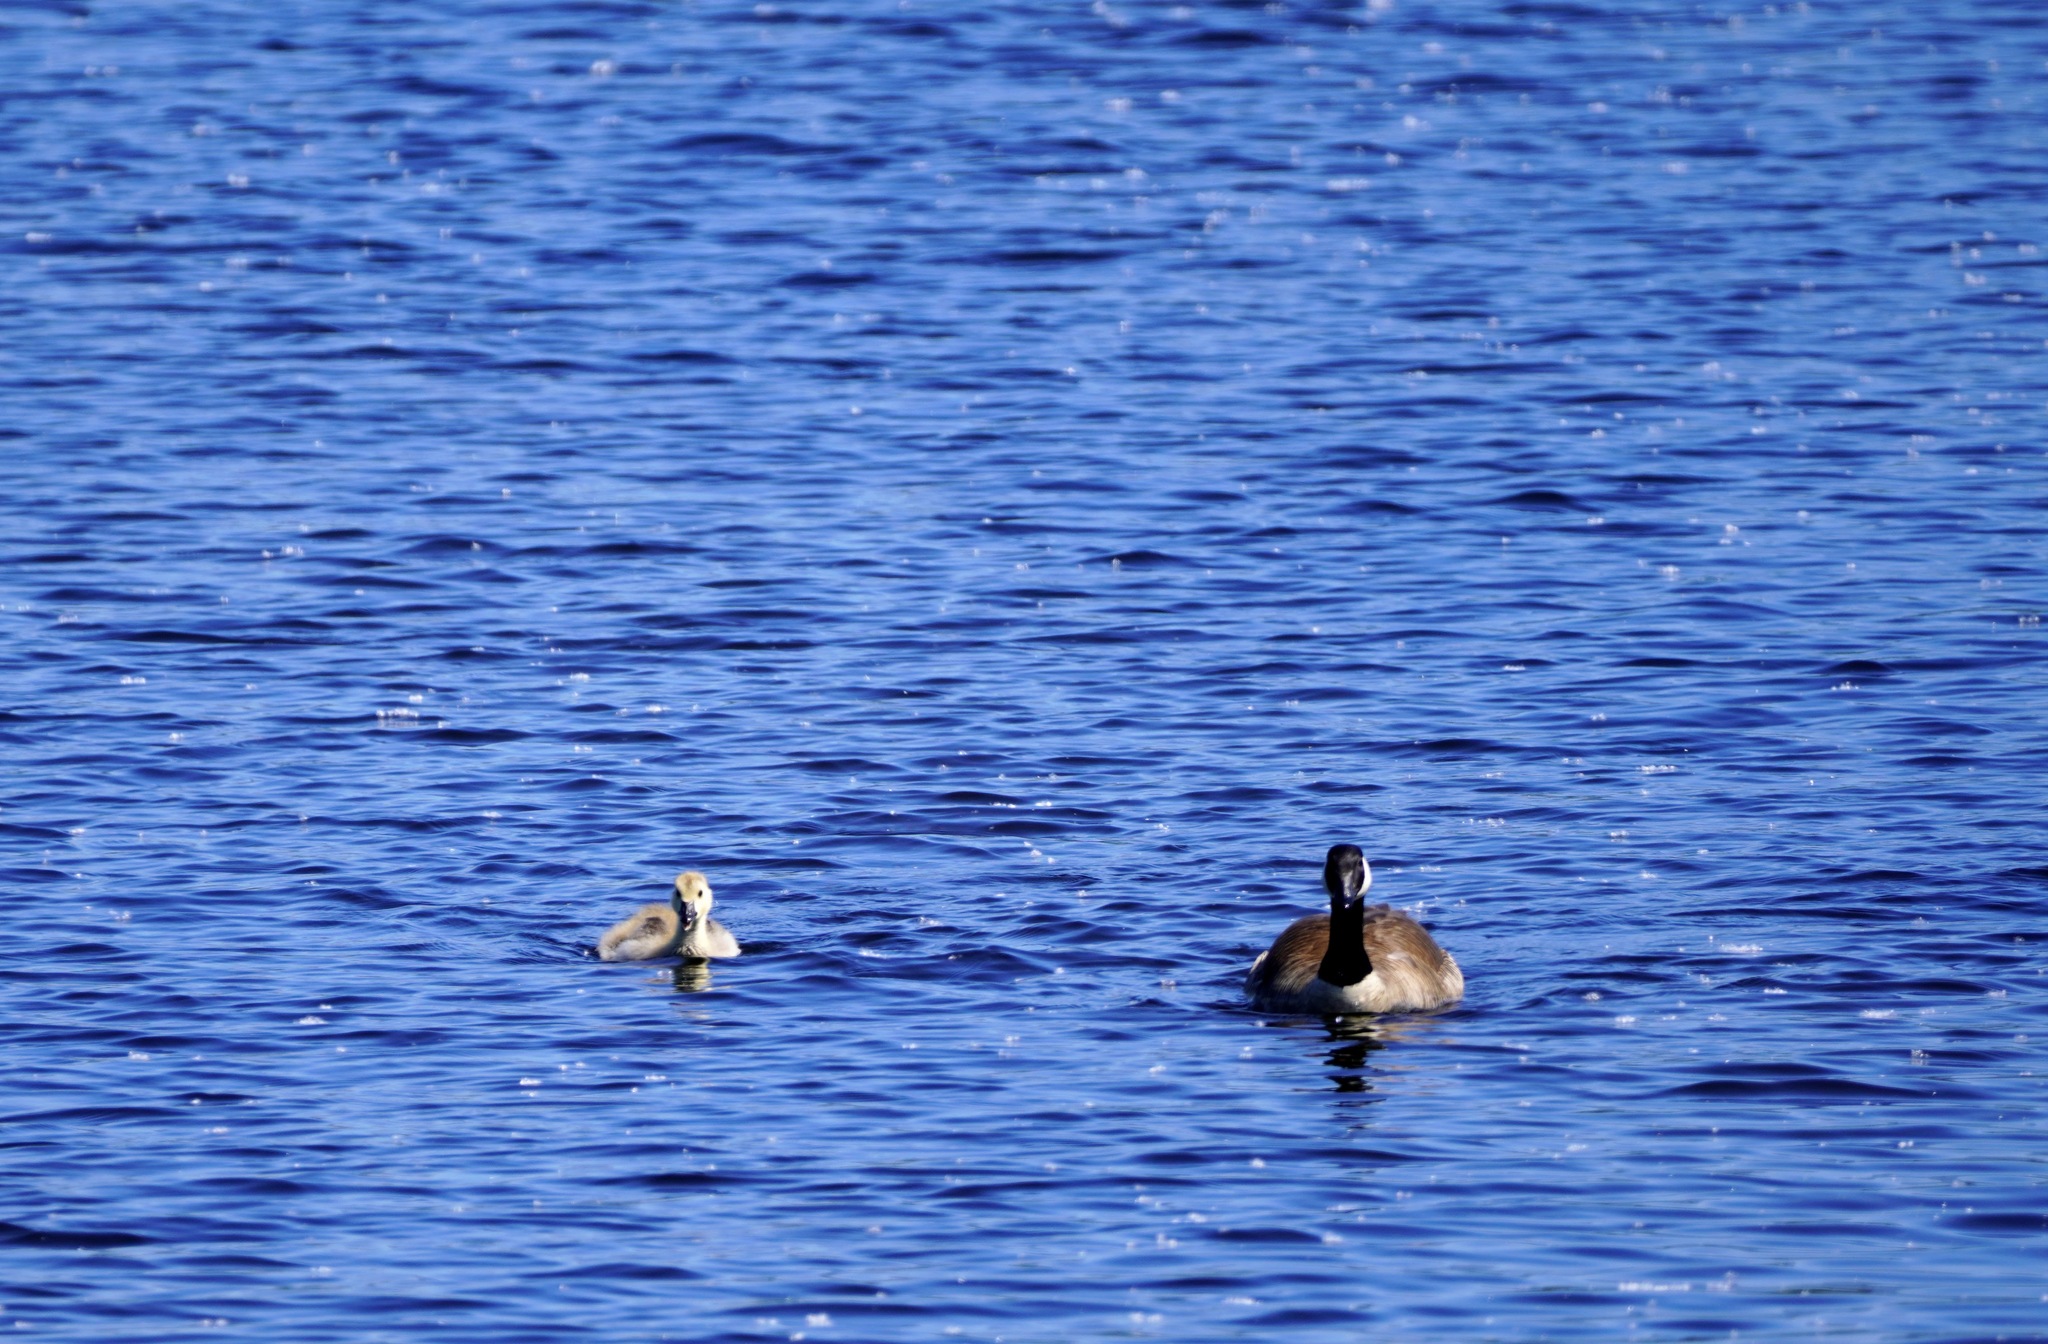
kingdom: Animalia
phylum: Chordata
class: Aves
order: Anseriformes
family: Anatidae
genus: Branta
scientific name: Branta canadensis
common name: Canada goose
